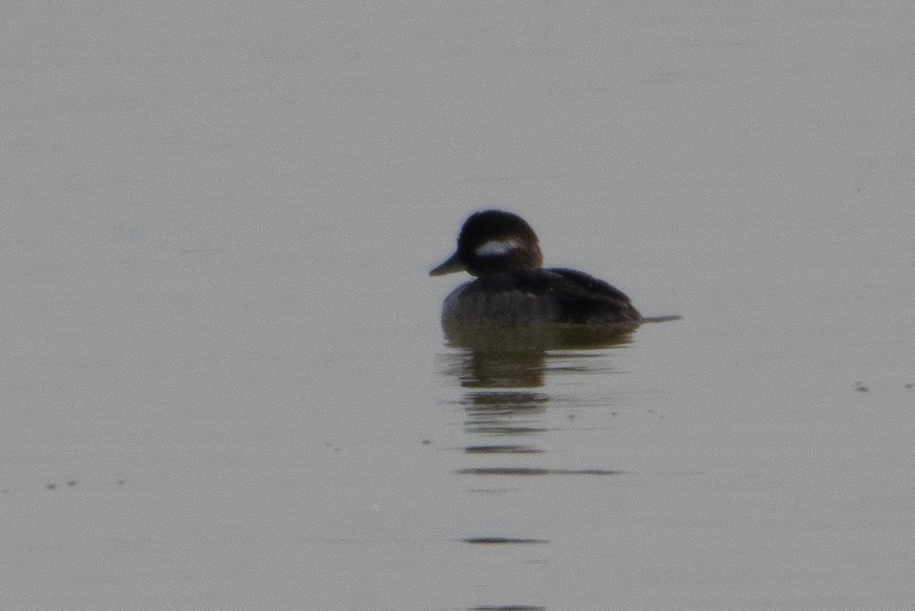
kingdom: Animalia
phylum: Chordata
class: Aves
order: Anseriformes
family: Anatidae
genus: Bucephala
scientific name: Bucephala albeola
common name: Bufflehead
